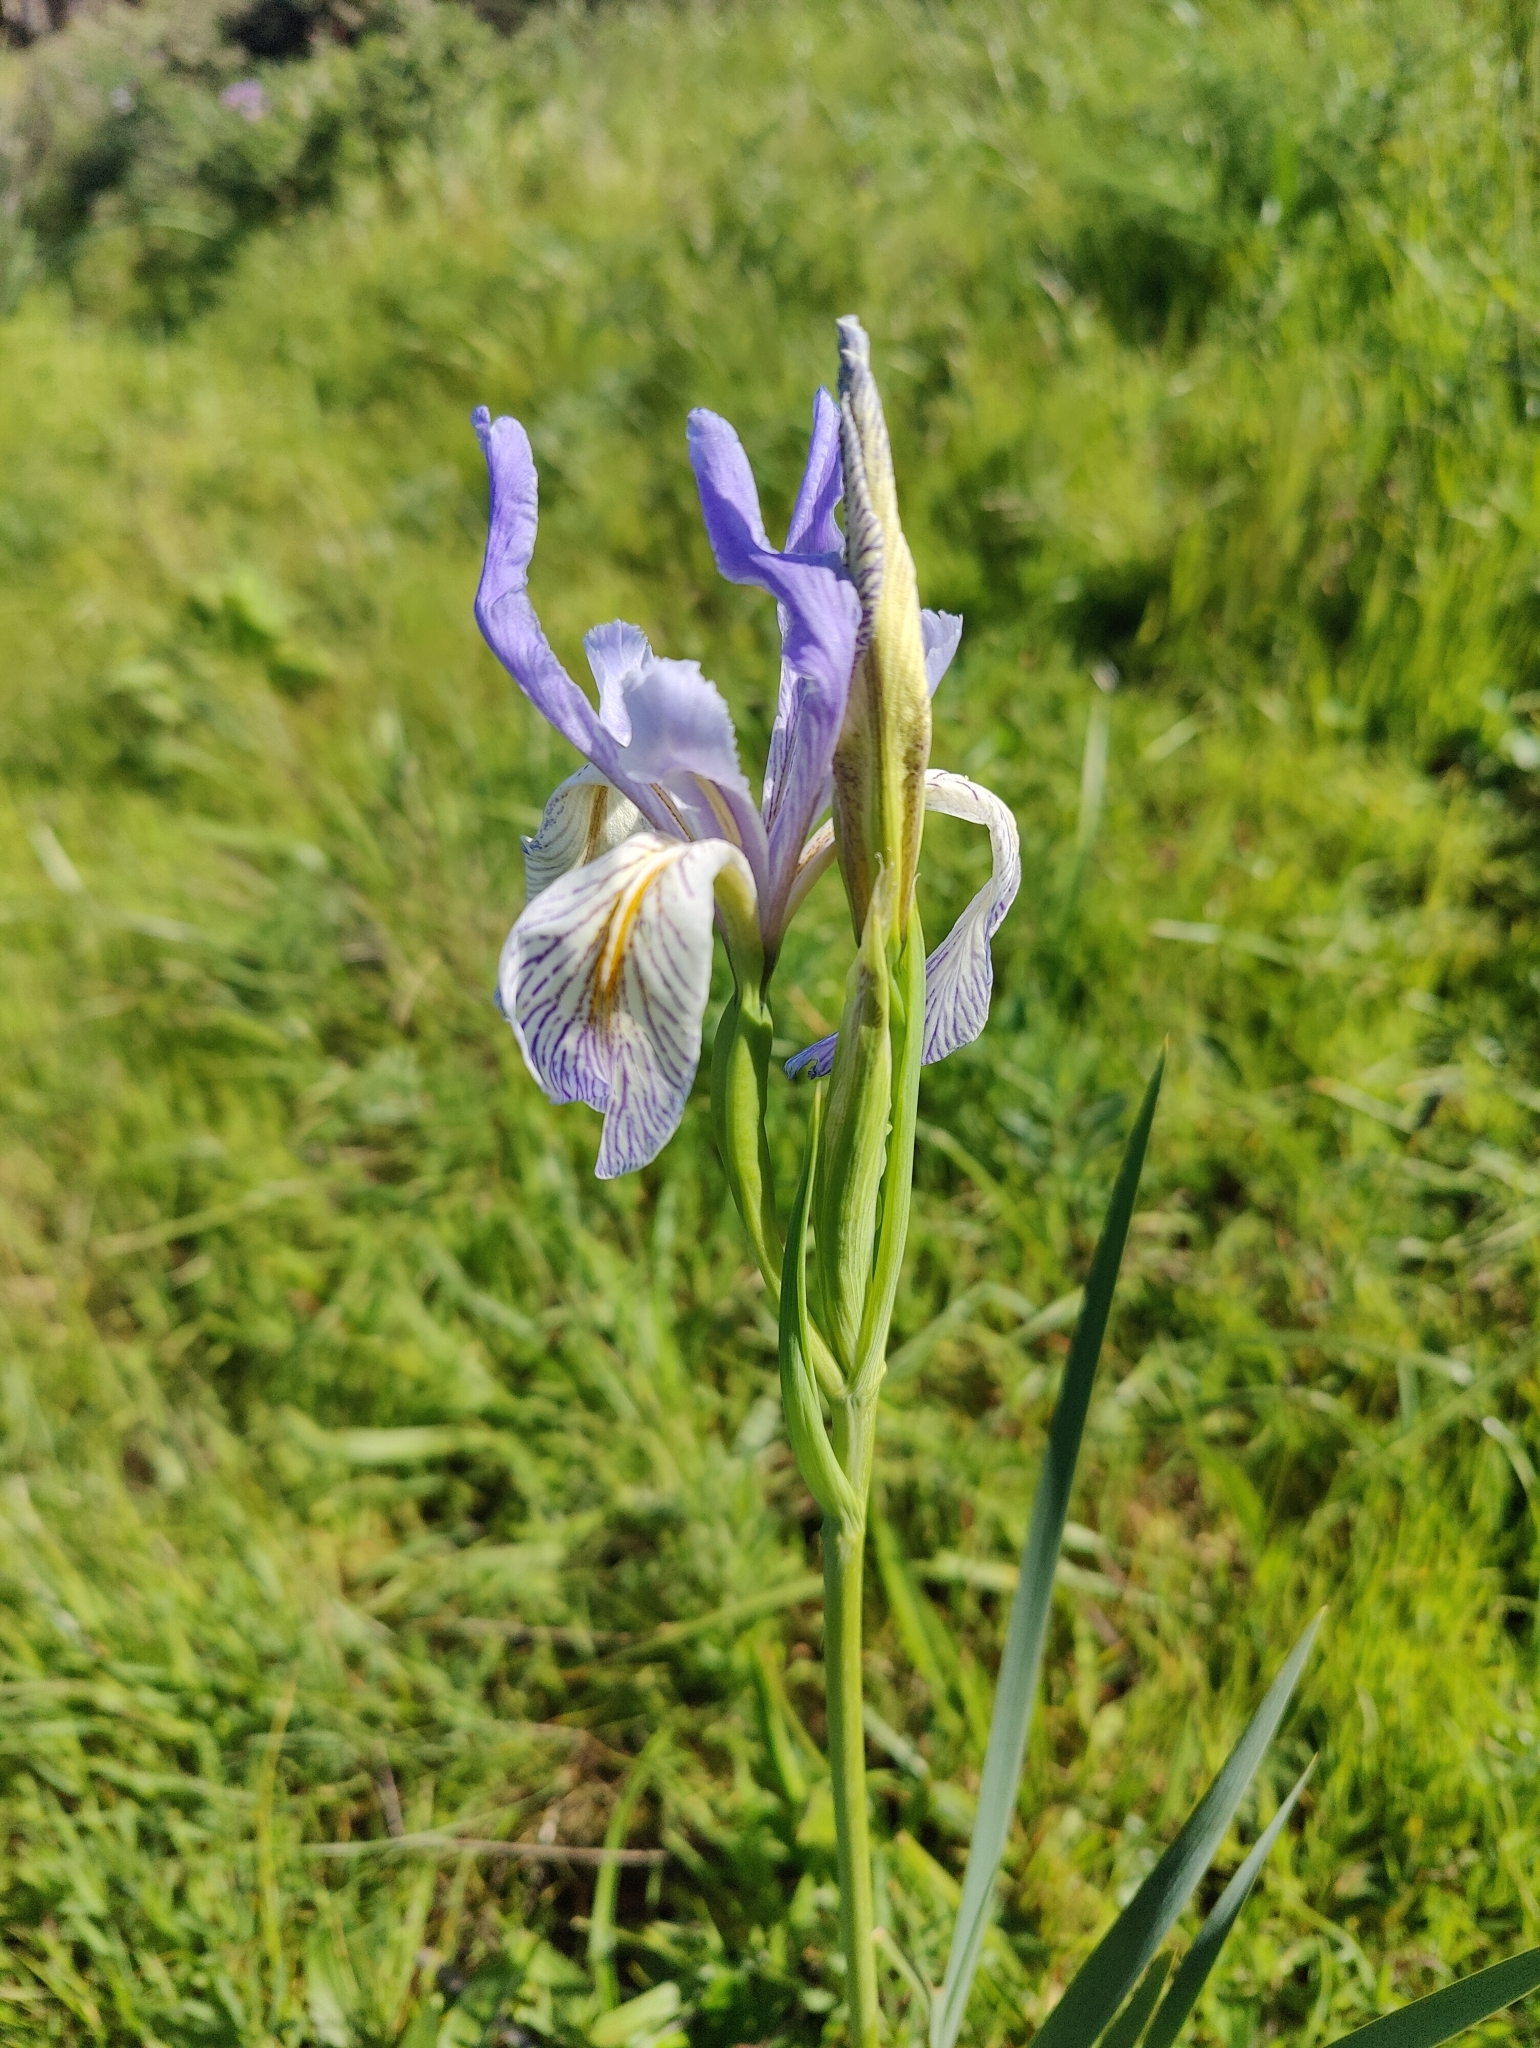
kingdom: Plantae
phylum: Tracheophyta
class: Liliopsida
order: Asparagales
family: Iridaceae
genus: Iris
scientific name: Iris longipetala
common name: Long-petal iris
